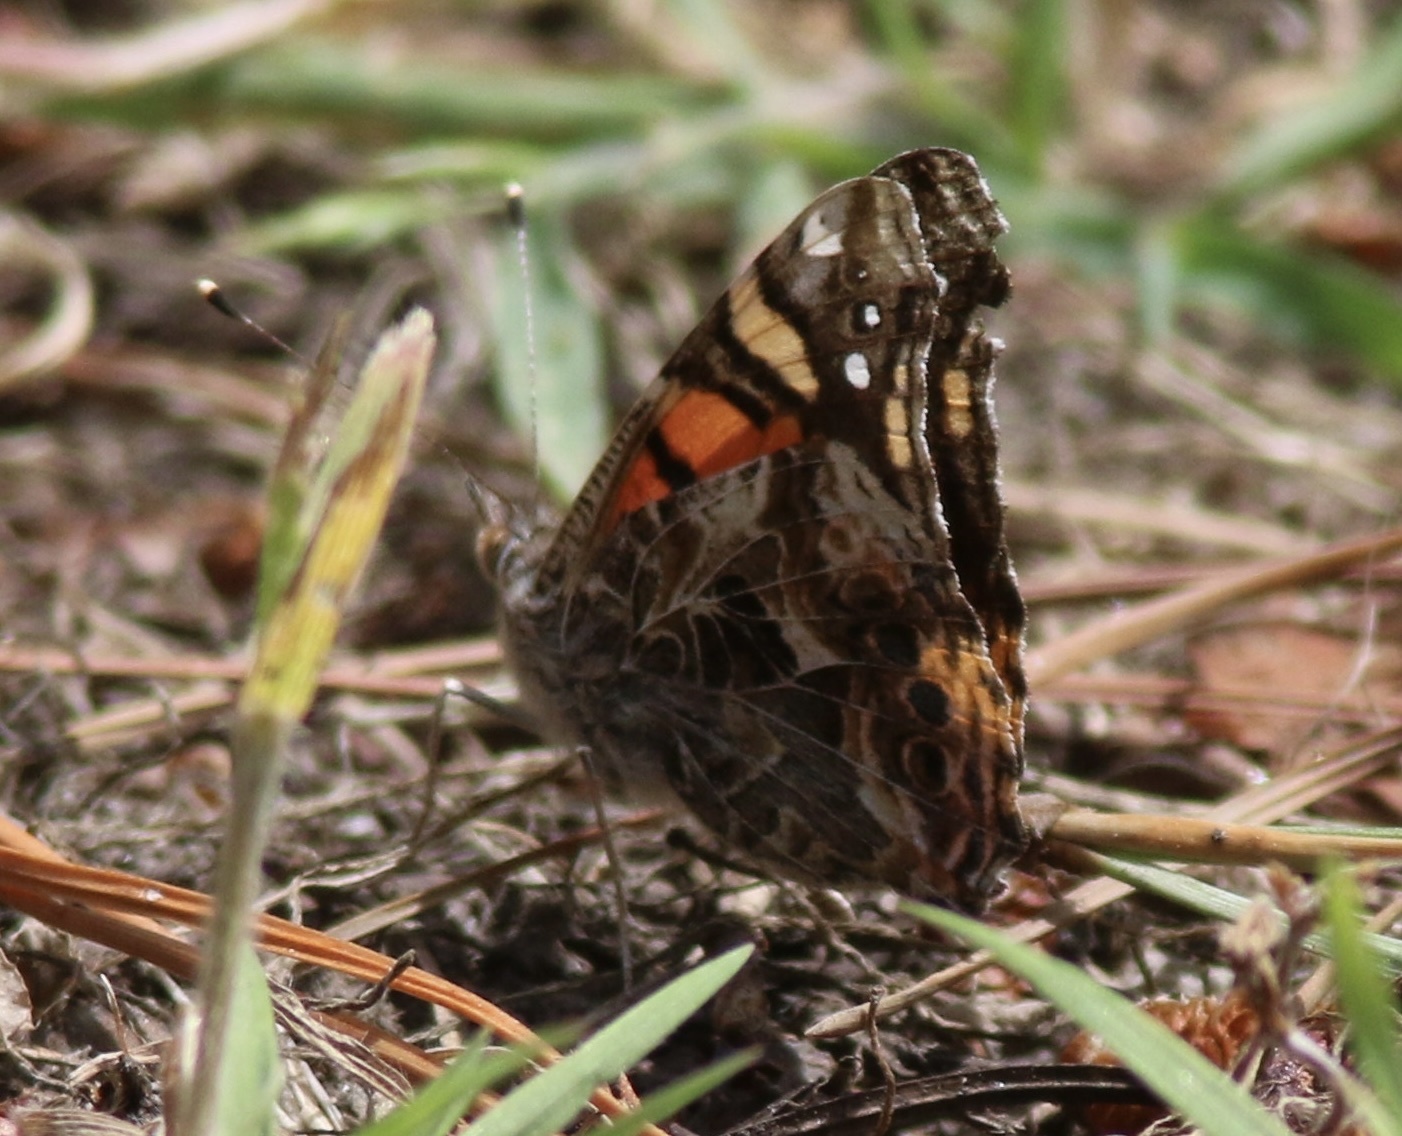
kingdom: Animalia
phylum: Arthropoda
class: Insecta
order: Lepidoptera
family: Nymphalidae
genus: Vanessa
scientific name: Vanessa annabella
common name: West coast lady
